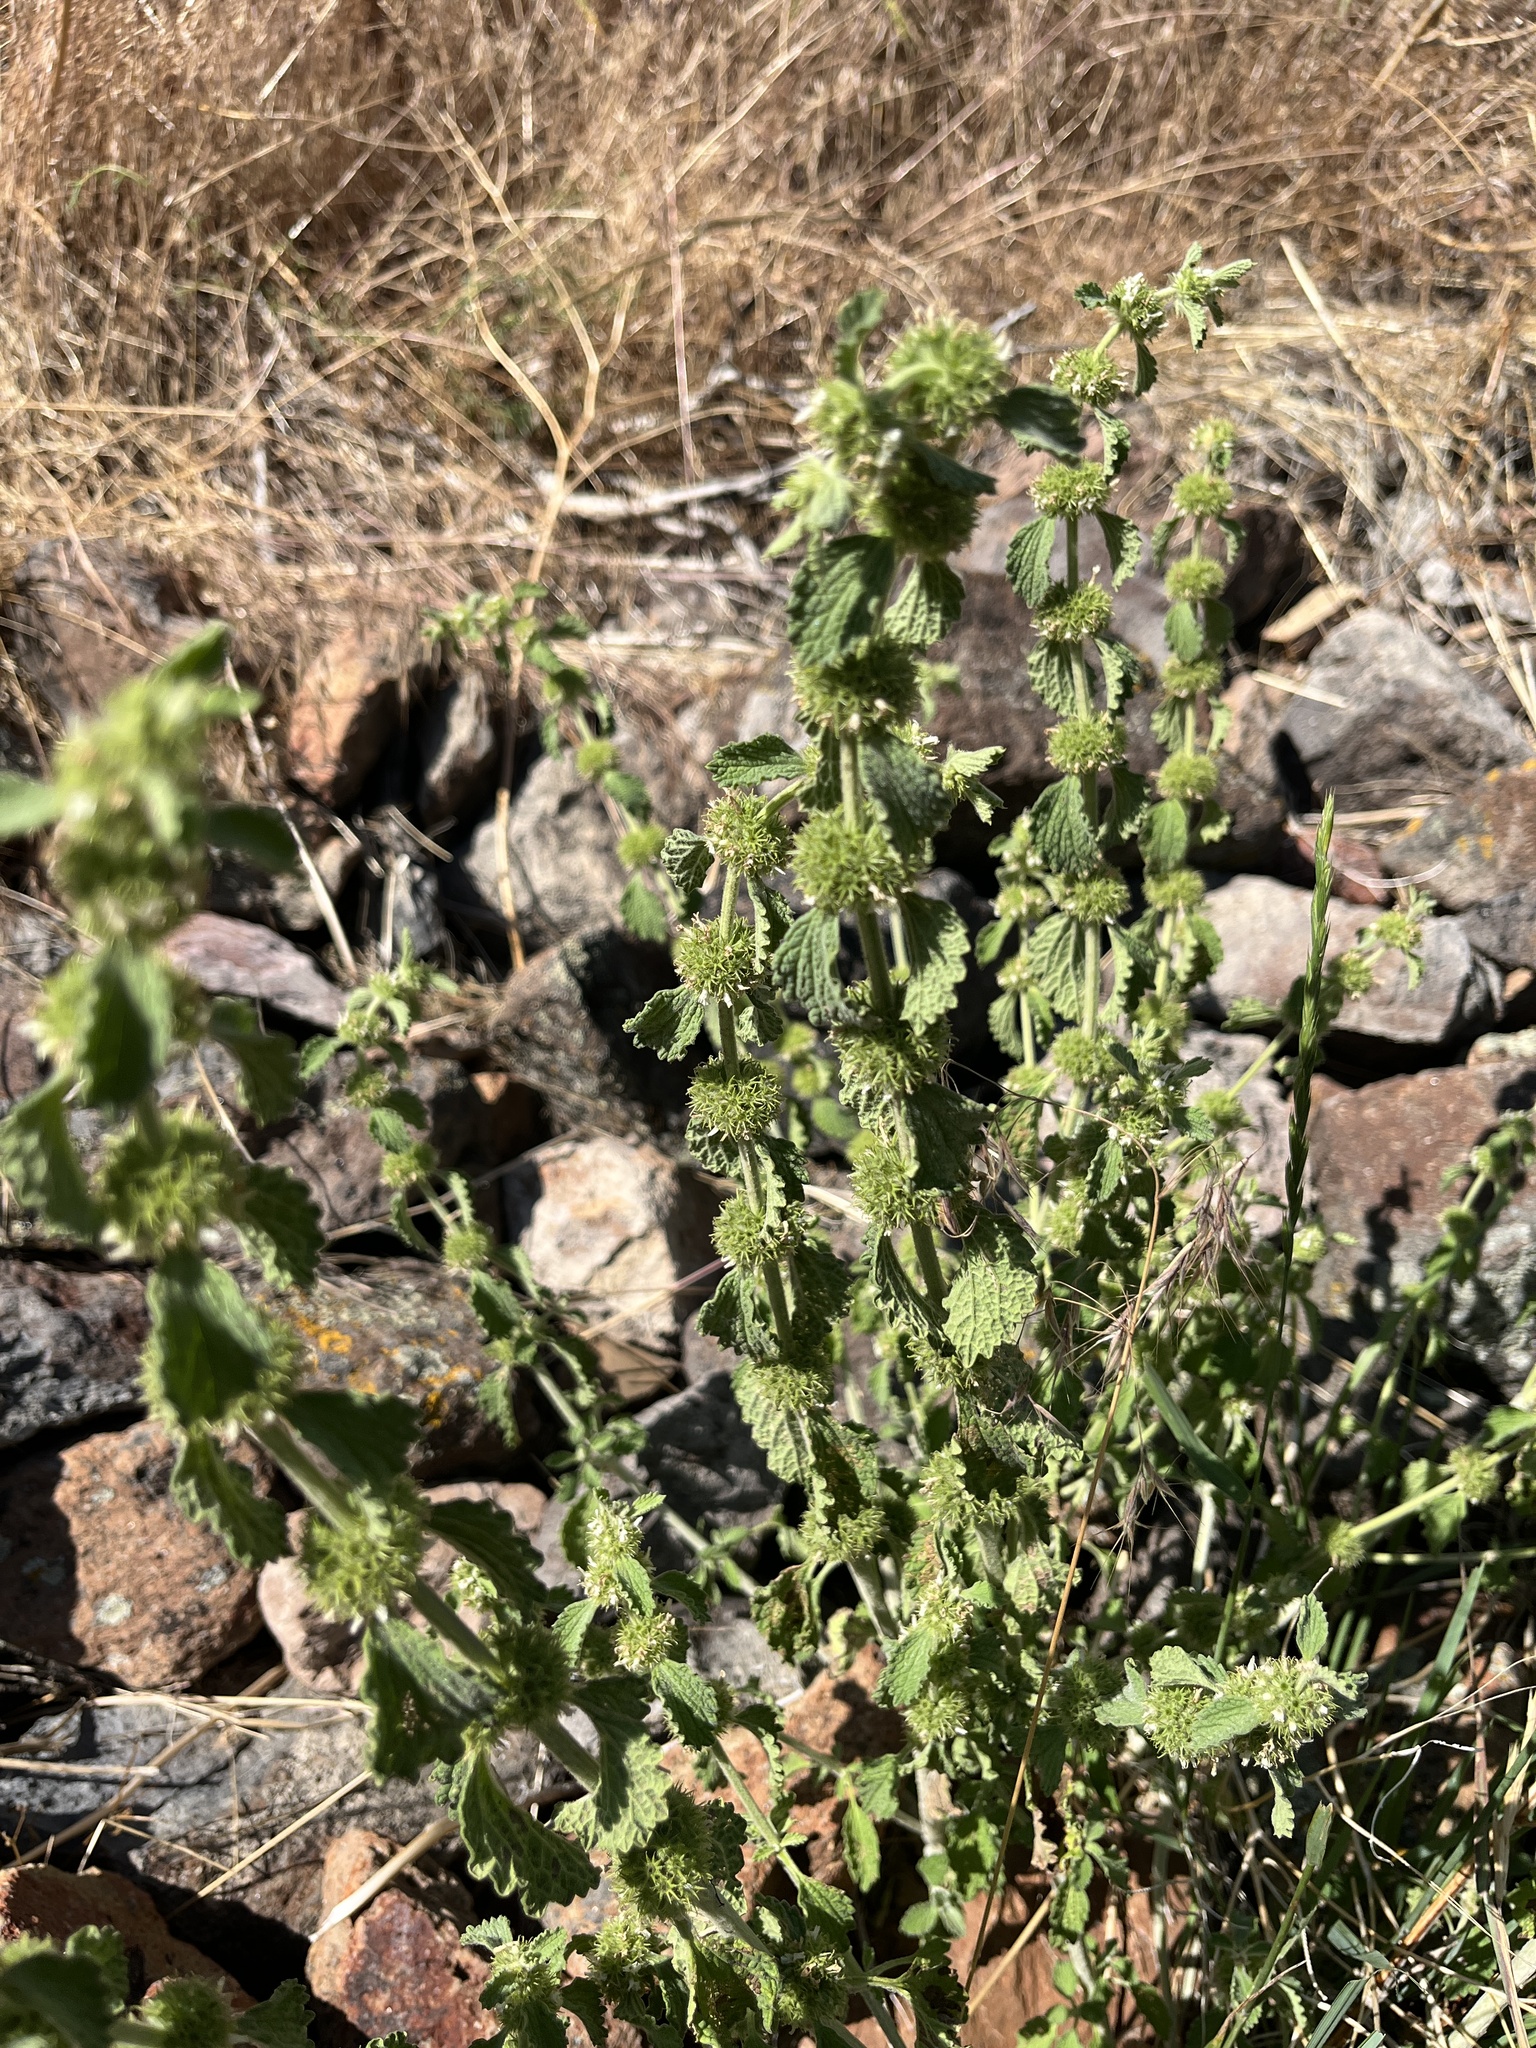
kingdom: Plantae
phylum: Tracheophyta
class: Magnoliopsida
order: Lamiales
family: Lamiaceae
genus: Marrubium
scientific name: Marrubium vulgare
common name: Horehound
